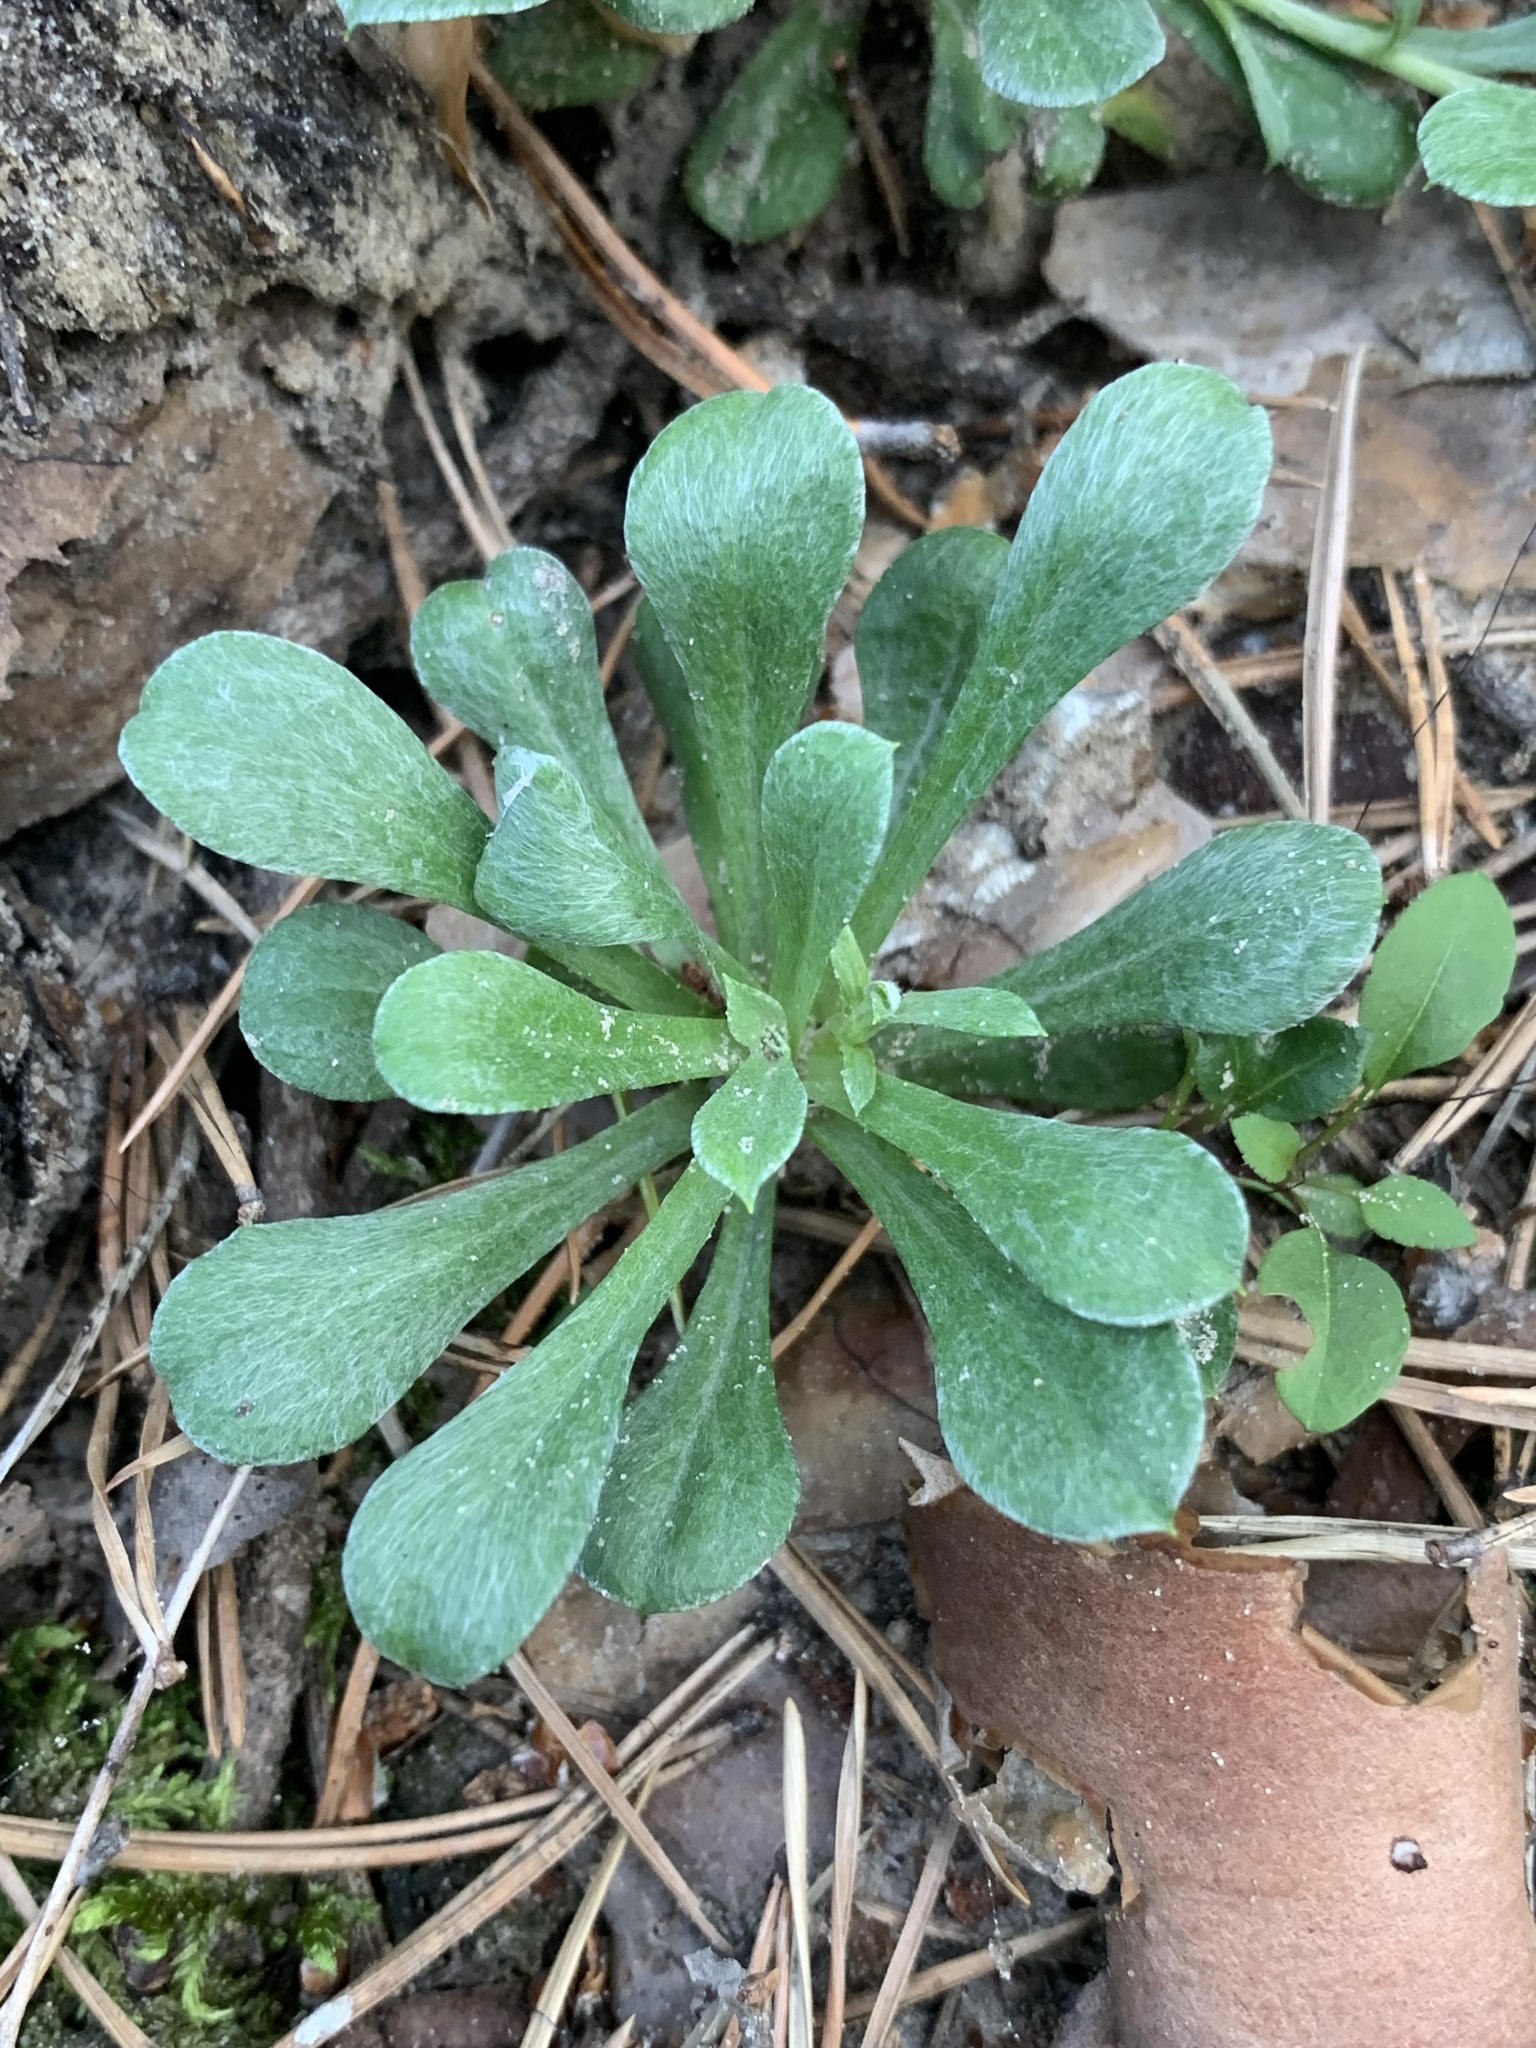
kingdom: Plantae
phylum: Tracheophyta
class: Magnoliopsida
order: Asterales
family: Asteraceae
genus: Antennaria
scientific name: Antennaria dioica
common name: Mountain everlasting
